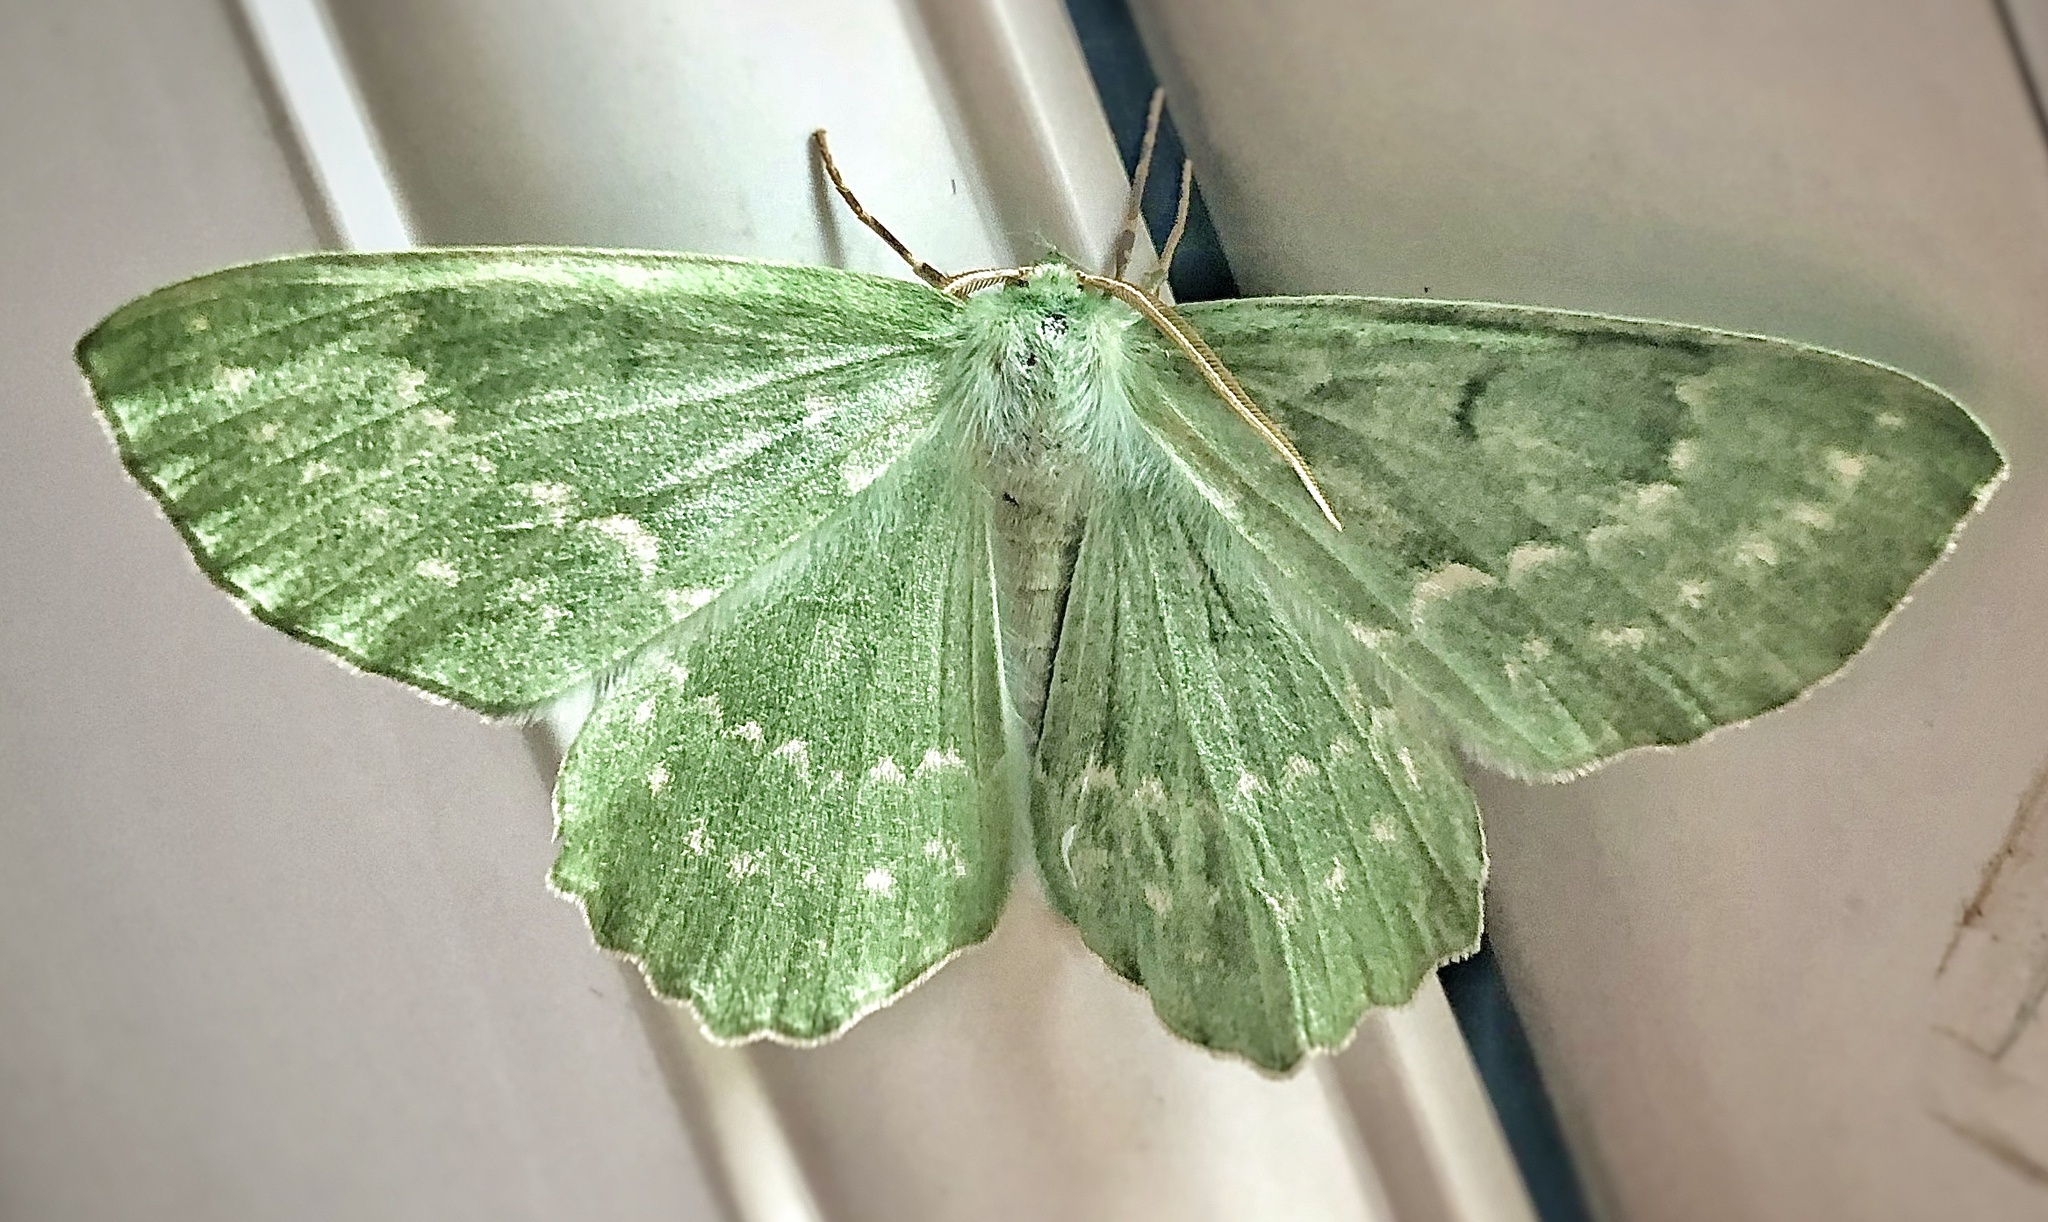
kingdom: Animalia
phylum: Arthropoda
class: Insecta
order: Lepidoptera
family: Geometridae
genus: Geometra
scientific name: Geometra papilionaria
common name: Large emerald
